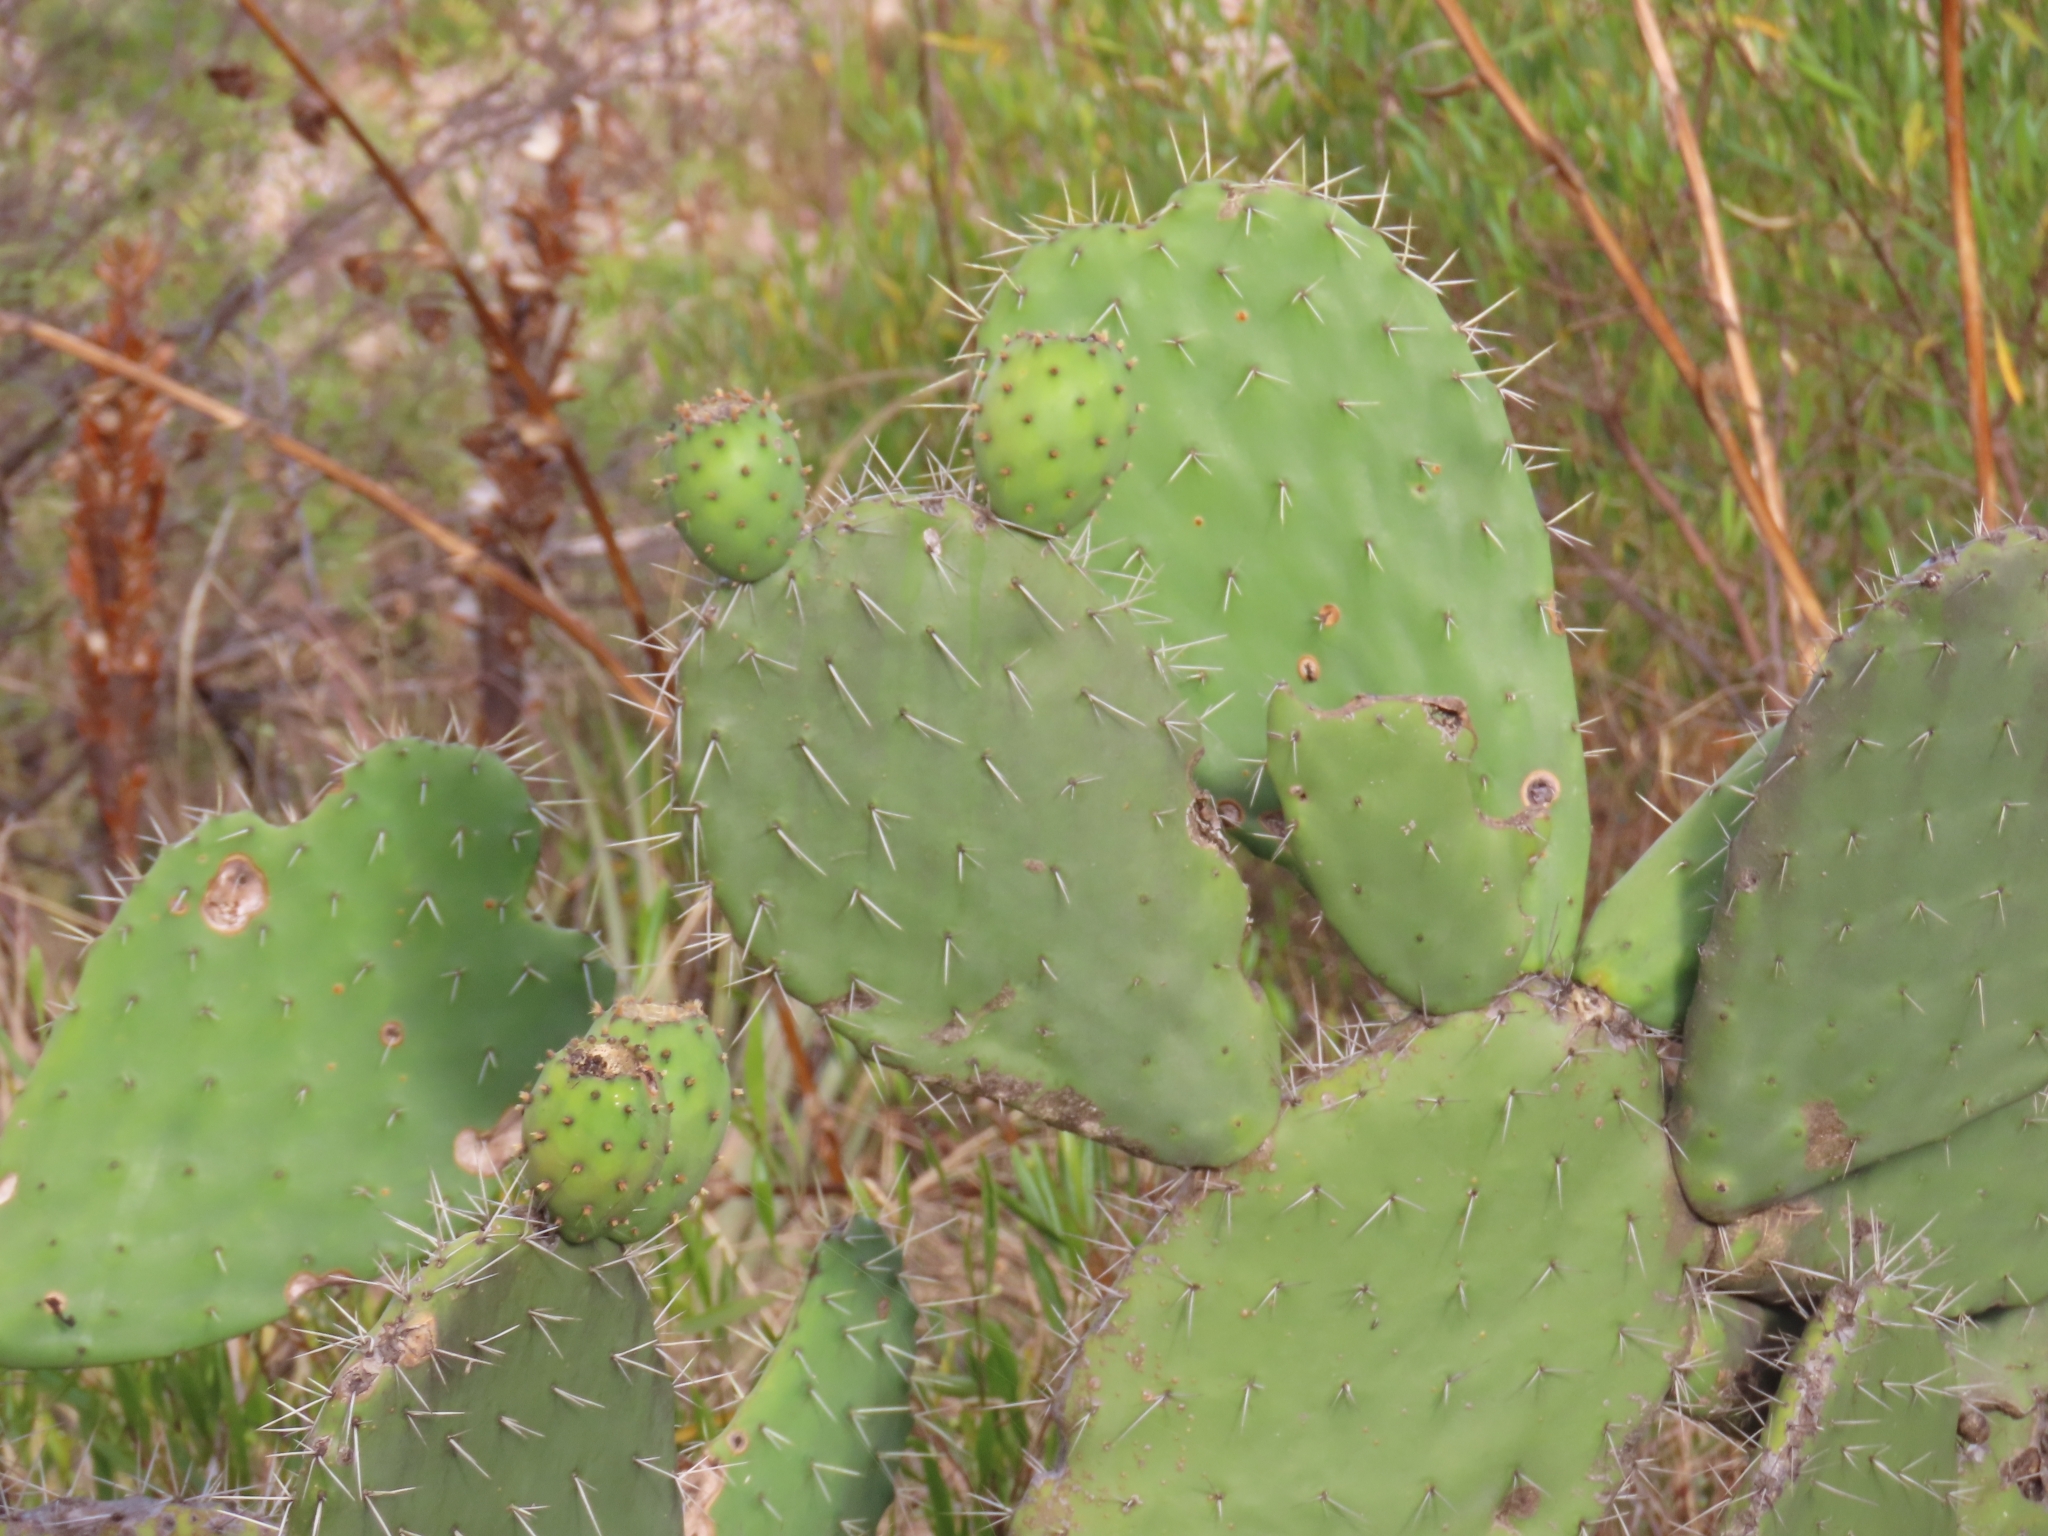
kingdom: Plantae
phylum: Tracheophyta
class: Magnoliopsida
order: Caryophyllales
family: Cactaceae
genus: Opuntia
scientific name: Opuntia ficus-indica
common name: Barbary fig
